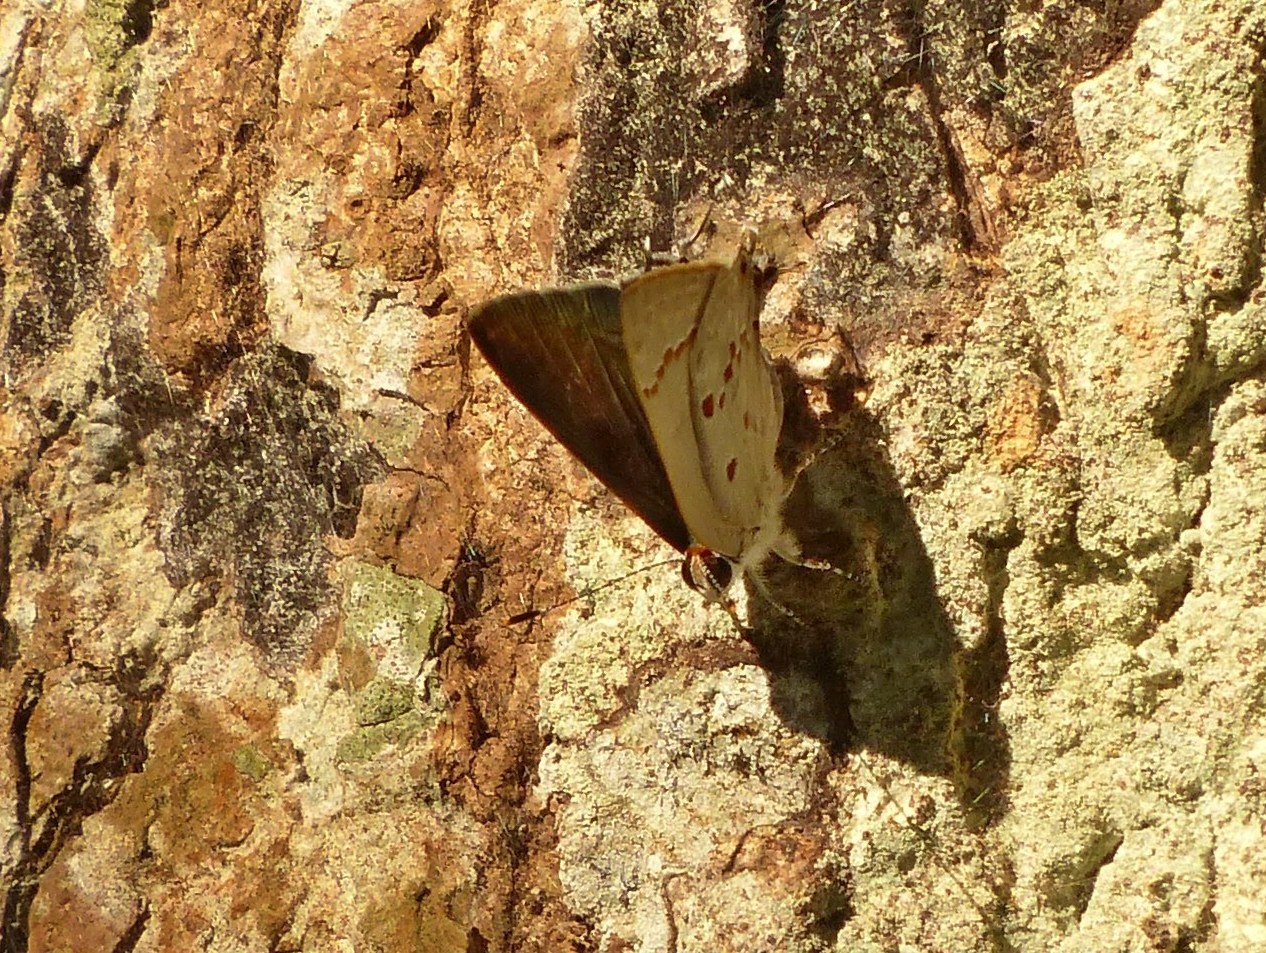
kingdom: Animalia
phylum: Arthropoda
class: Insecta
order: Lepidoptera
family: Lycaenidae
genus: Thecla
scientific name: Thecla ziba
